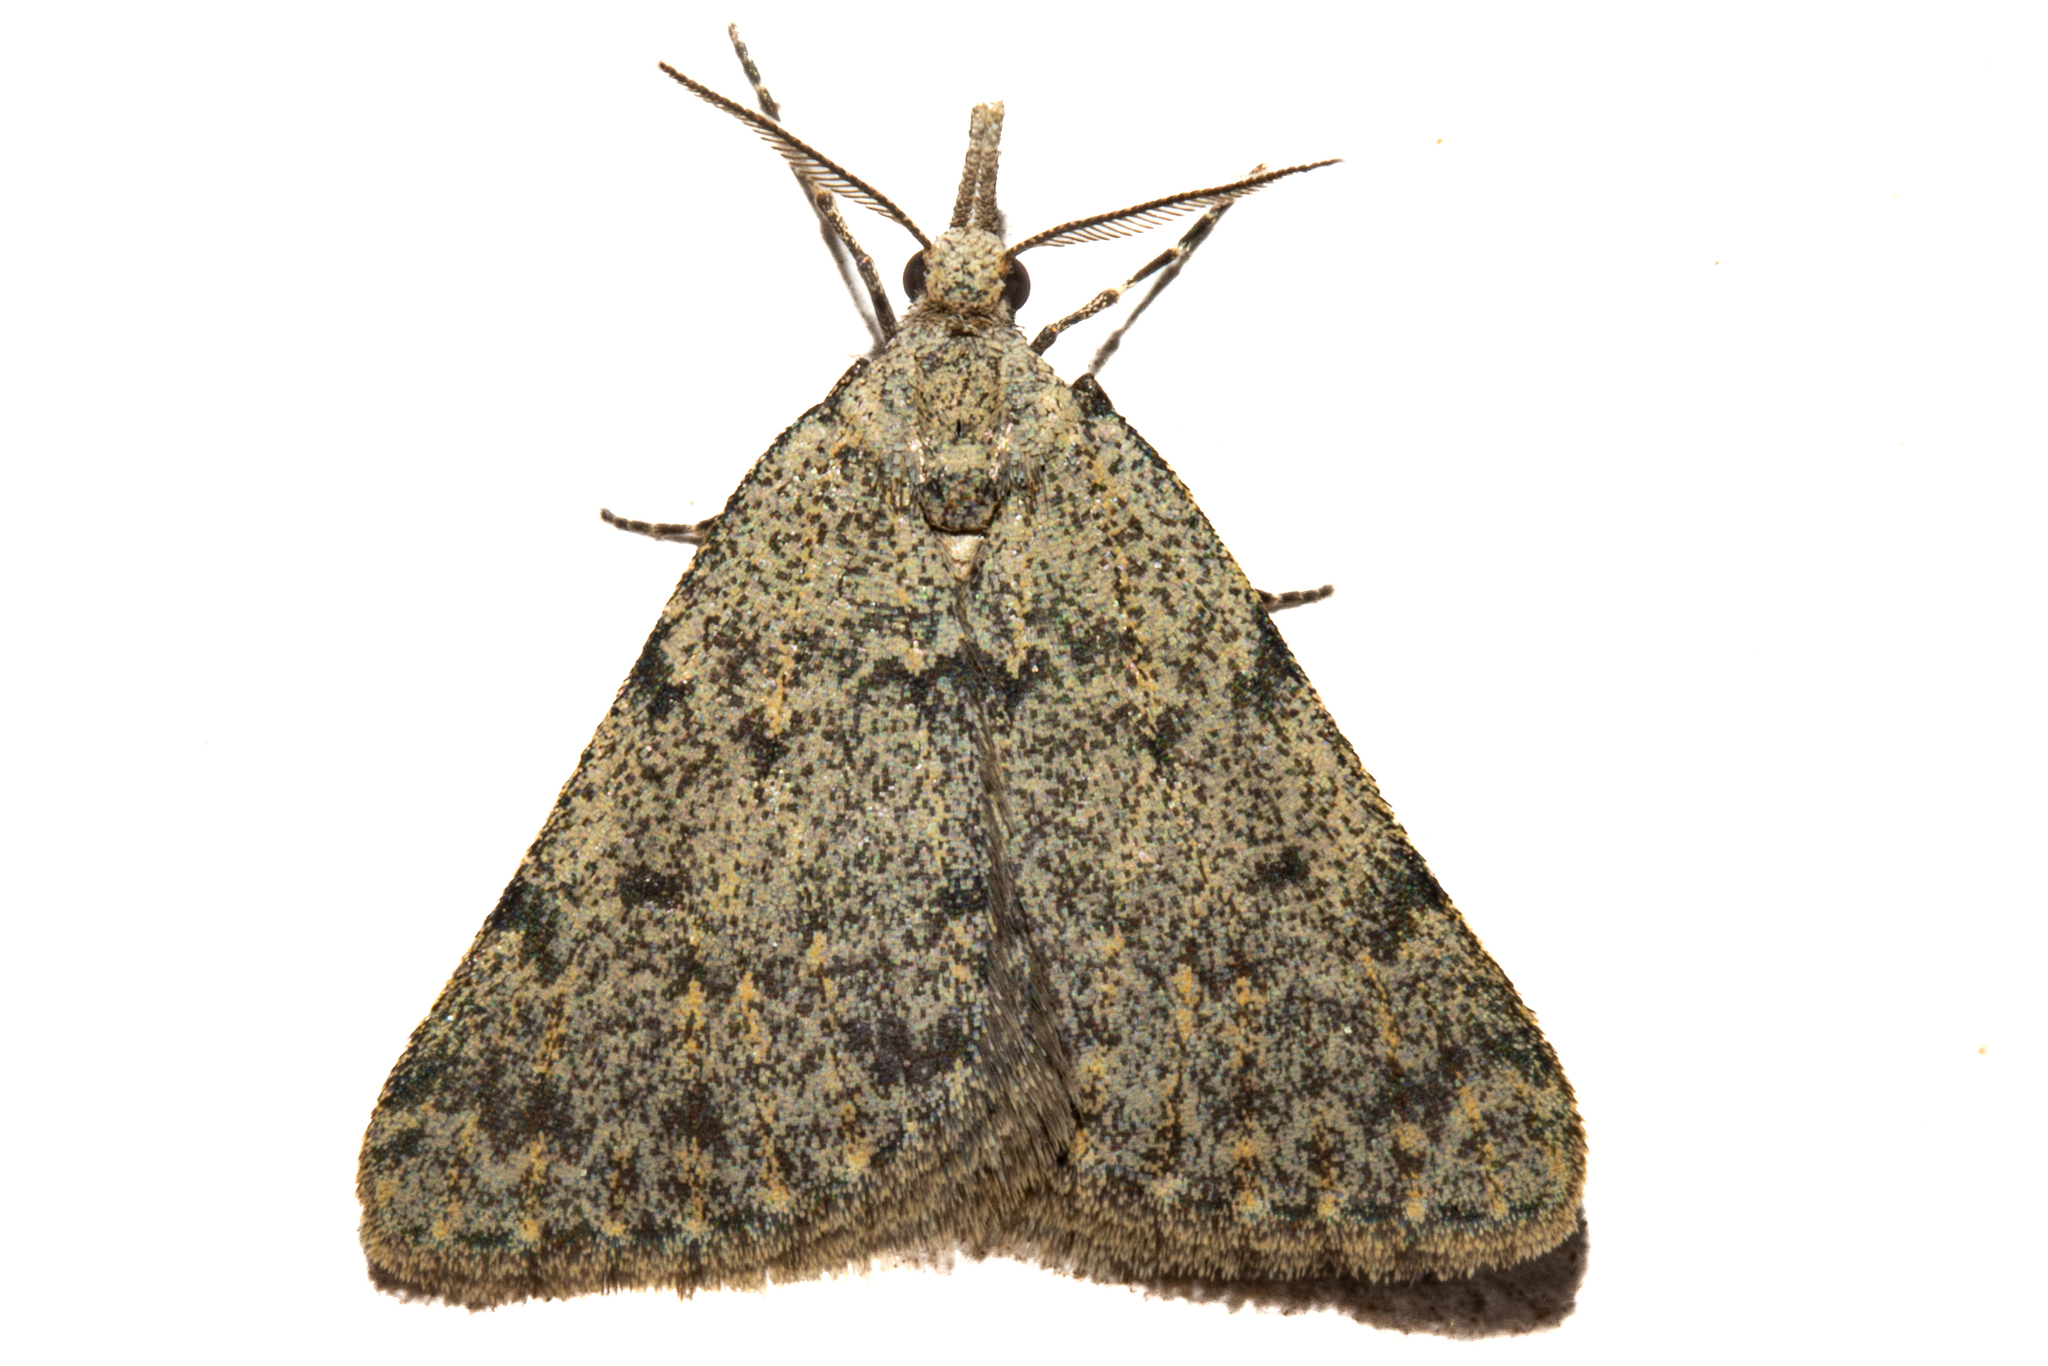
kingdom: Animalia
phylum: Arthropoda
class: Insecta
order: Lepidoptera
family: Geometridae
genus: Dichromodes
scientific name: Dichromodes sphaeriata
